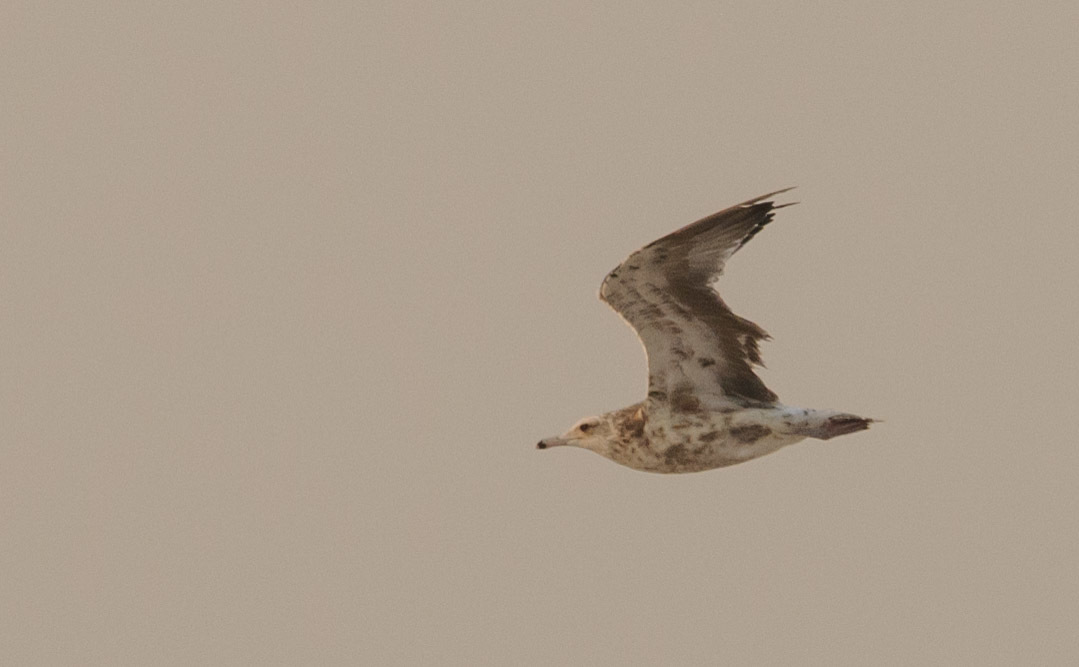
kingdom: Animalia
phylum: Chordata
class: Aves
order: Charadriiformes
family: Laridae
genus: Larus
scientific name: Larus californicus
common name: California gull
